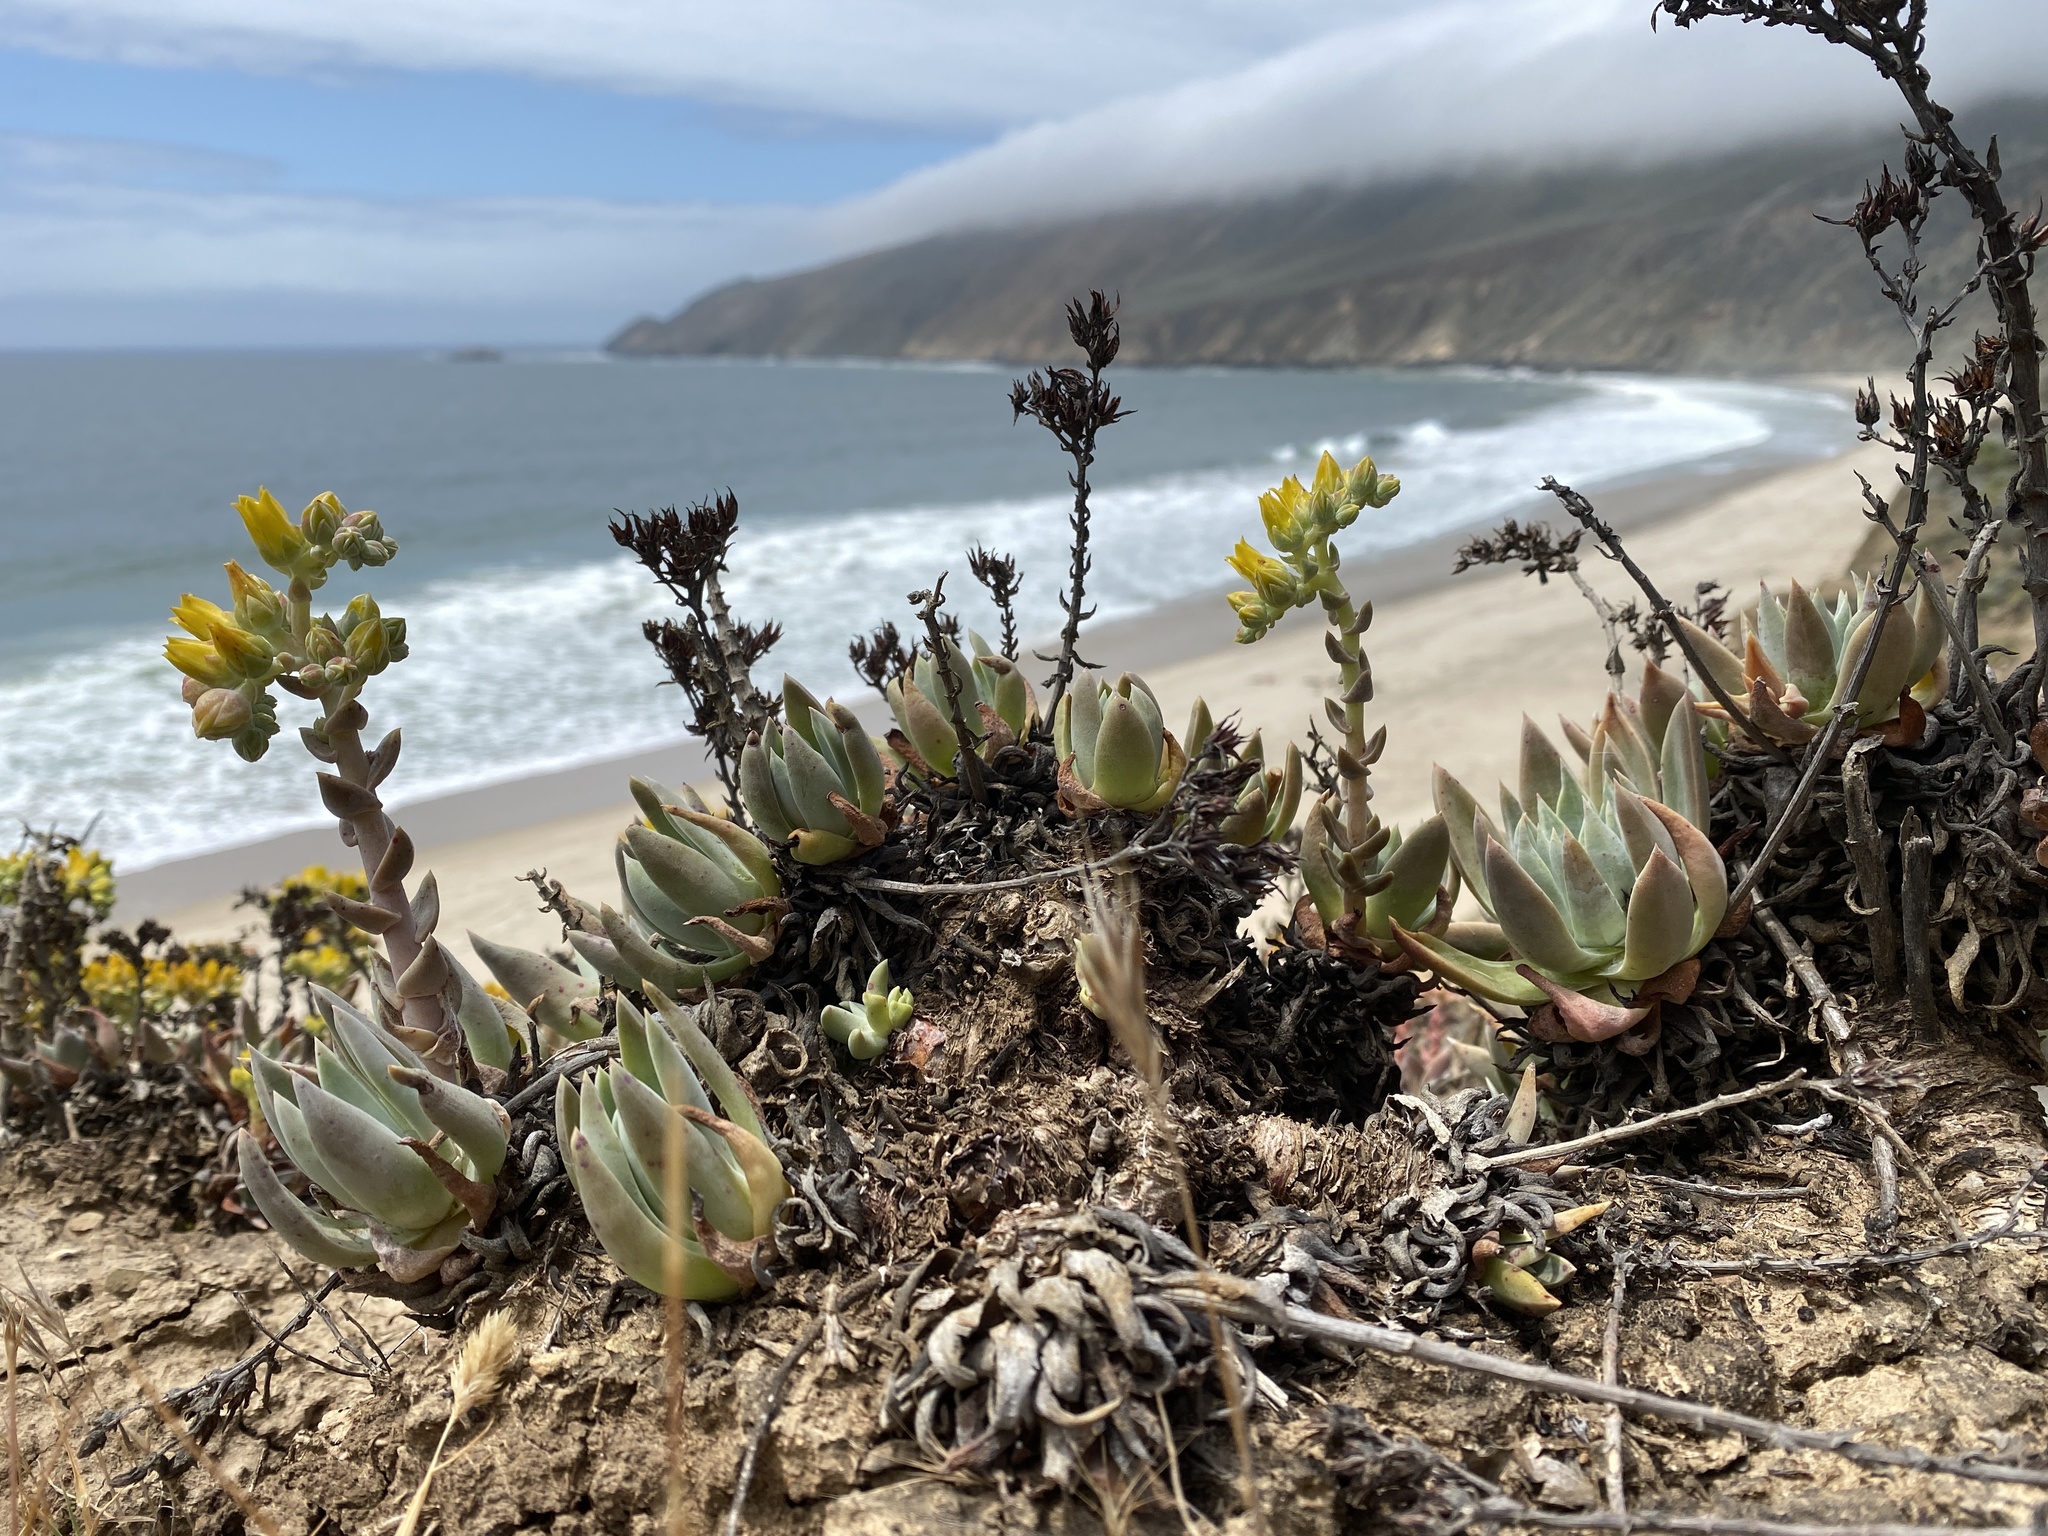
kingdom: Plantae
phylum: Tracheophyta
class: Magnoliopsida
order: Saxifragales
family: Crassulaceae
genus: Dudleya
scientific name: Dudleya caespitosa
